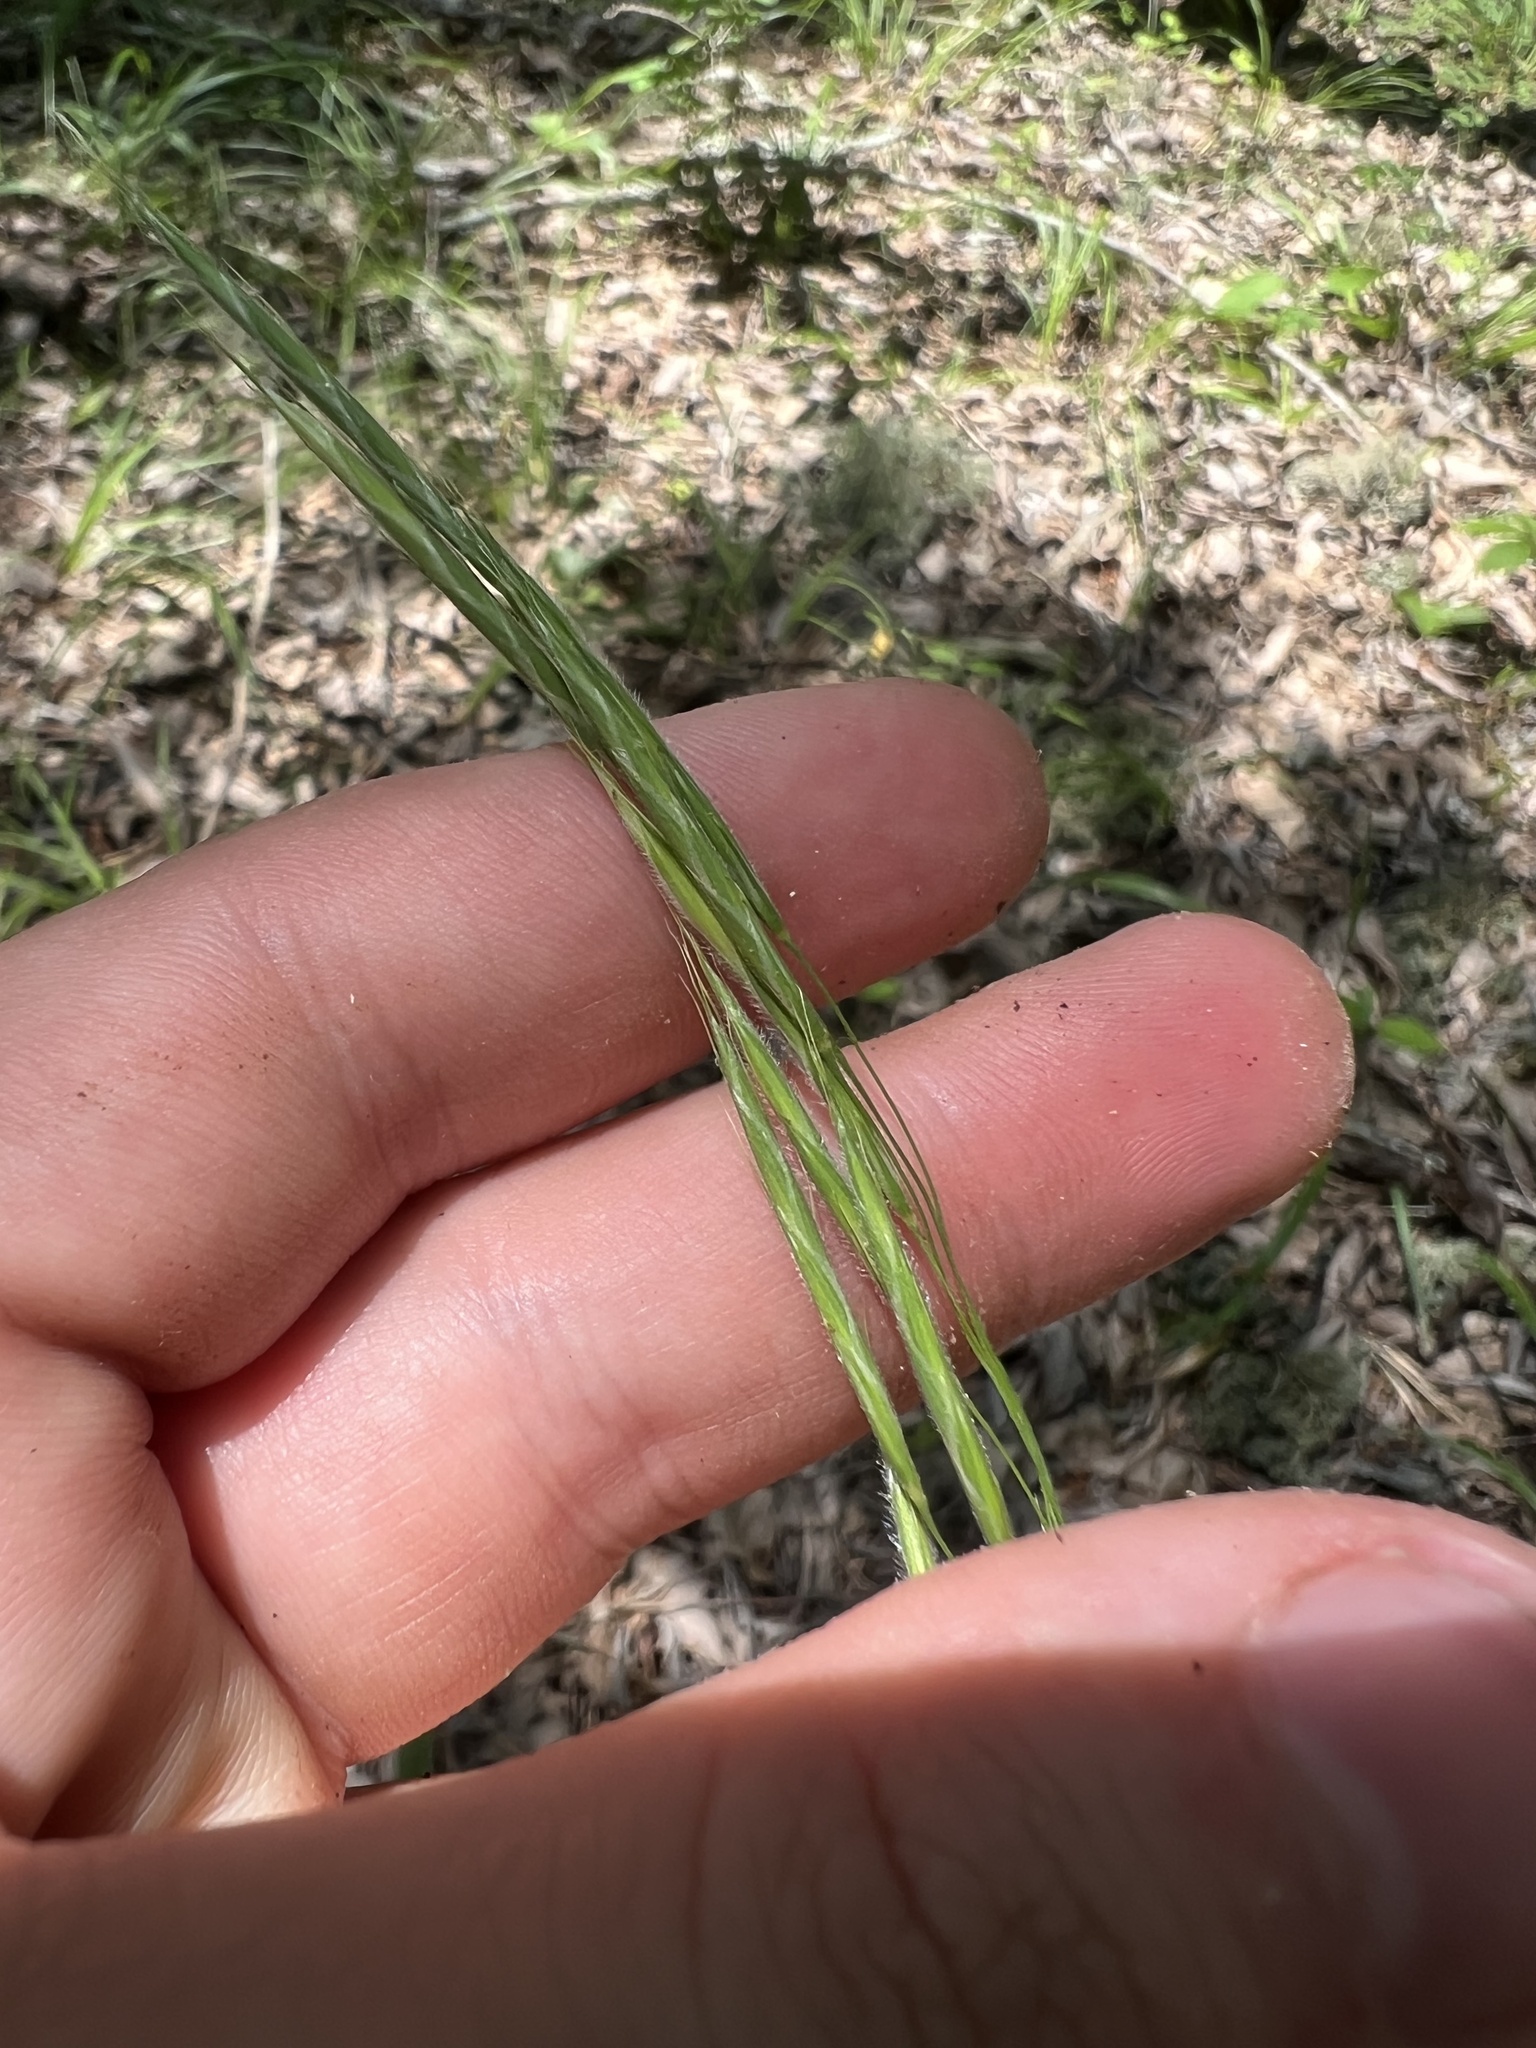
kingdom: Plantae
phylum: Tracheophyta
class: Liliopsida
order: Poales
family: Poaceae
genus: Bromus
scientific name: Bromus pubescens
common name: Hairy wood brome grass
